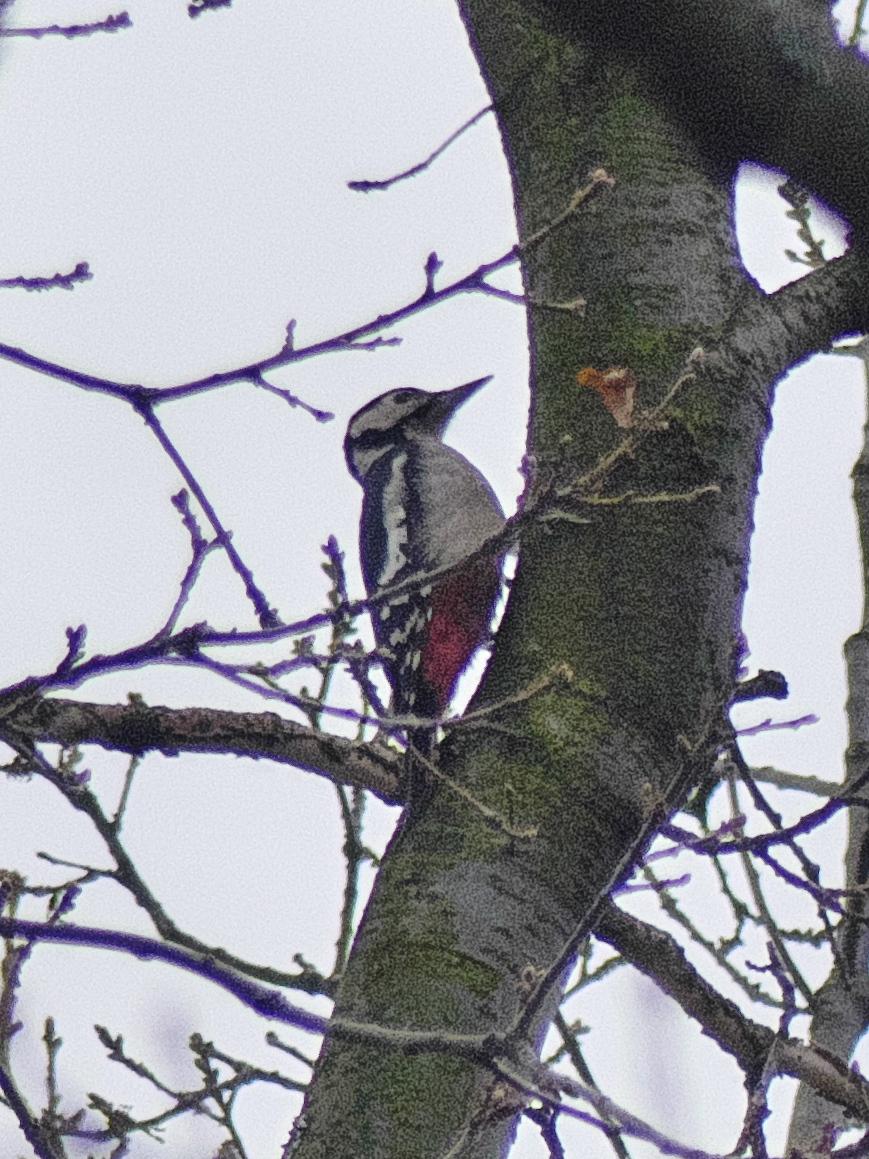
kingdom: Animalia
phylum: Chordata
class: Aves
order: Piciformes
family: Picidae
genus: Dendrocopos
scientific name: Dendrocopos major
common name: Great spotted woodpecker
